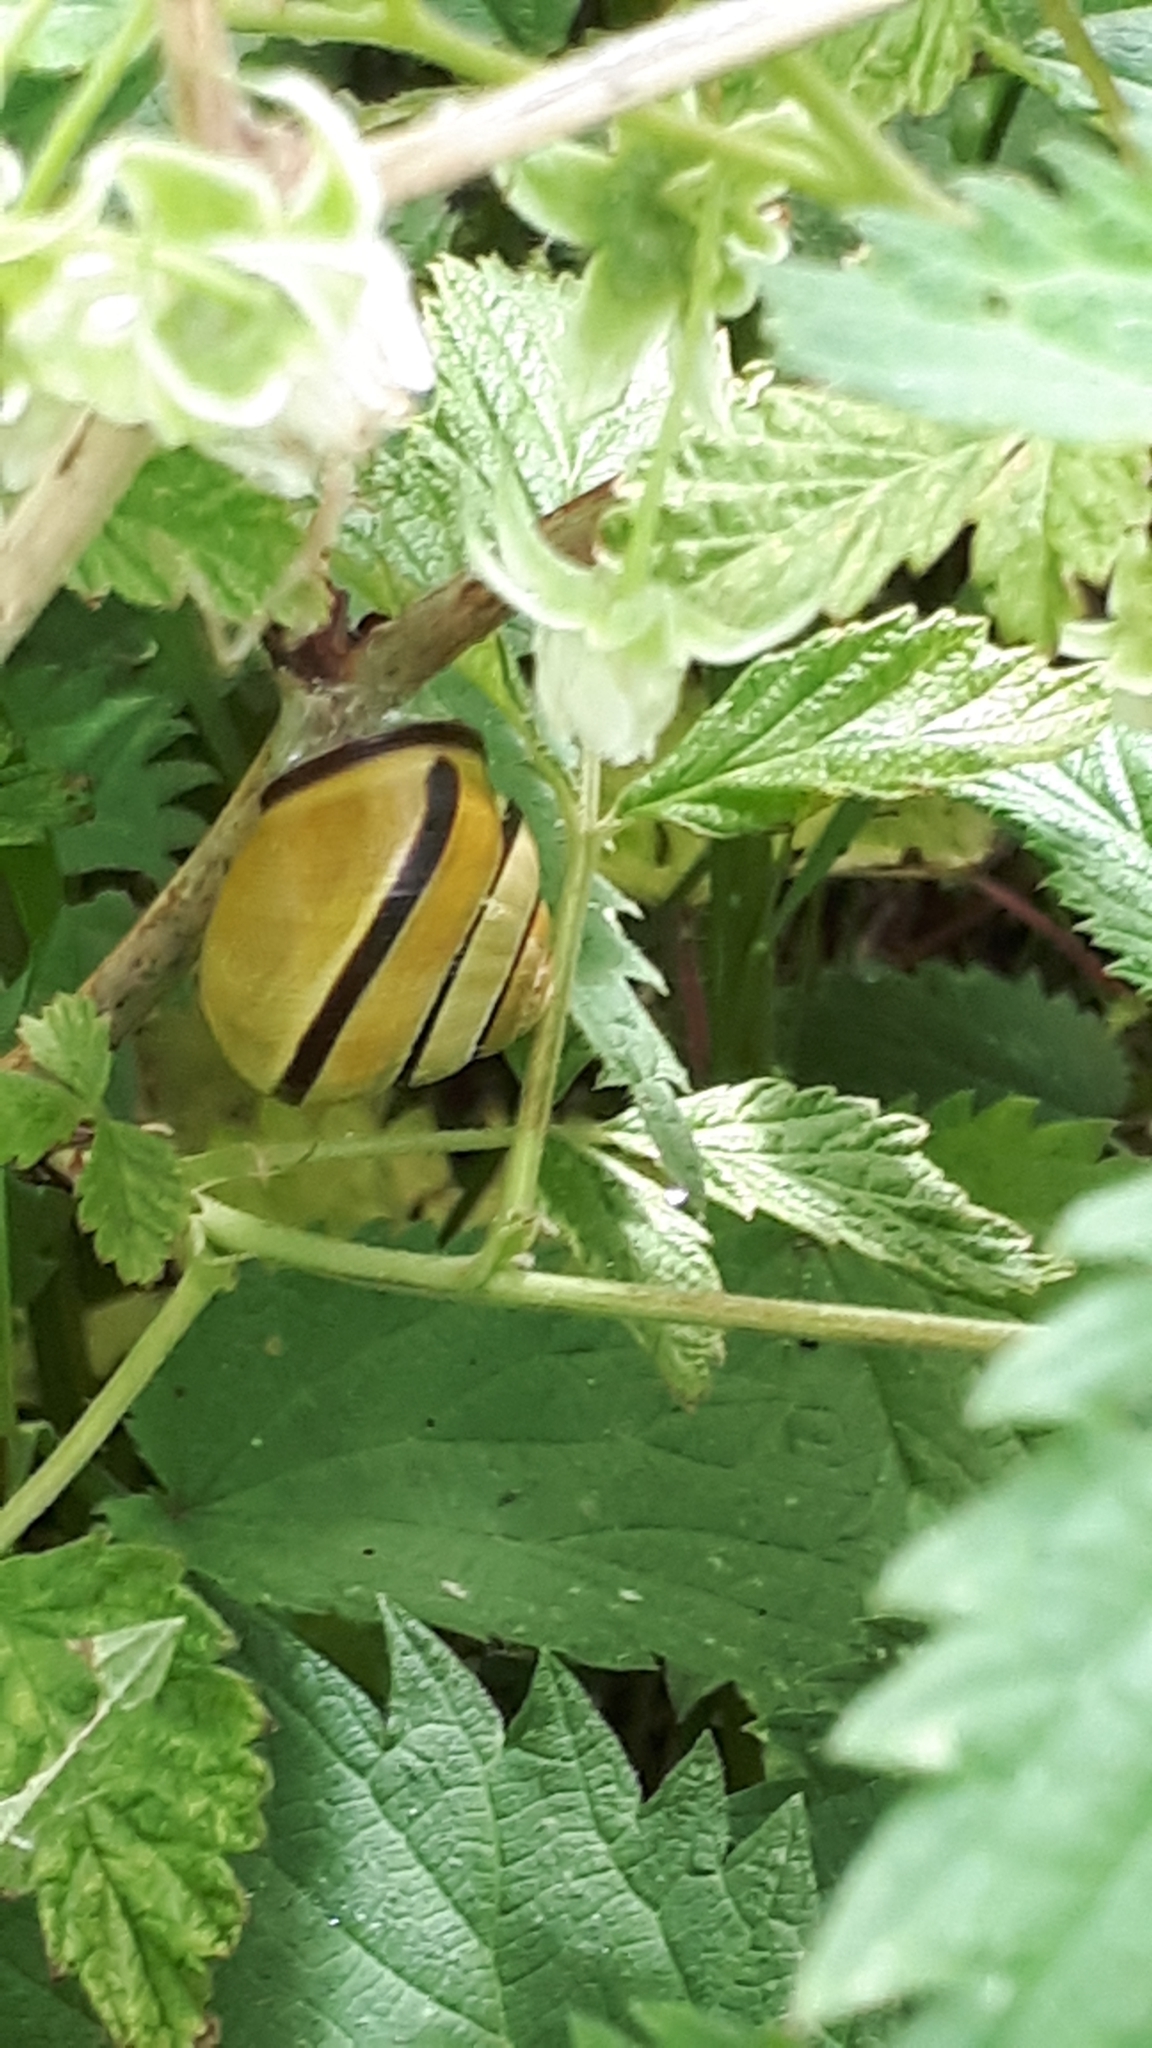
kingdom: Animalia
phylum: Mollusca
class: Gastropoda
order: Stylommatophora
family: Helicidae
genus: Cepaea
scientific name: Cepaea nemoralis
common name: Grovesnail
